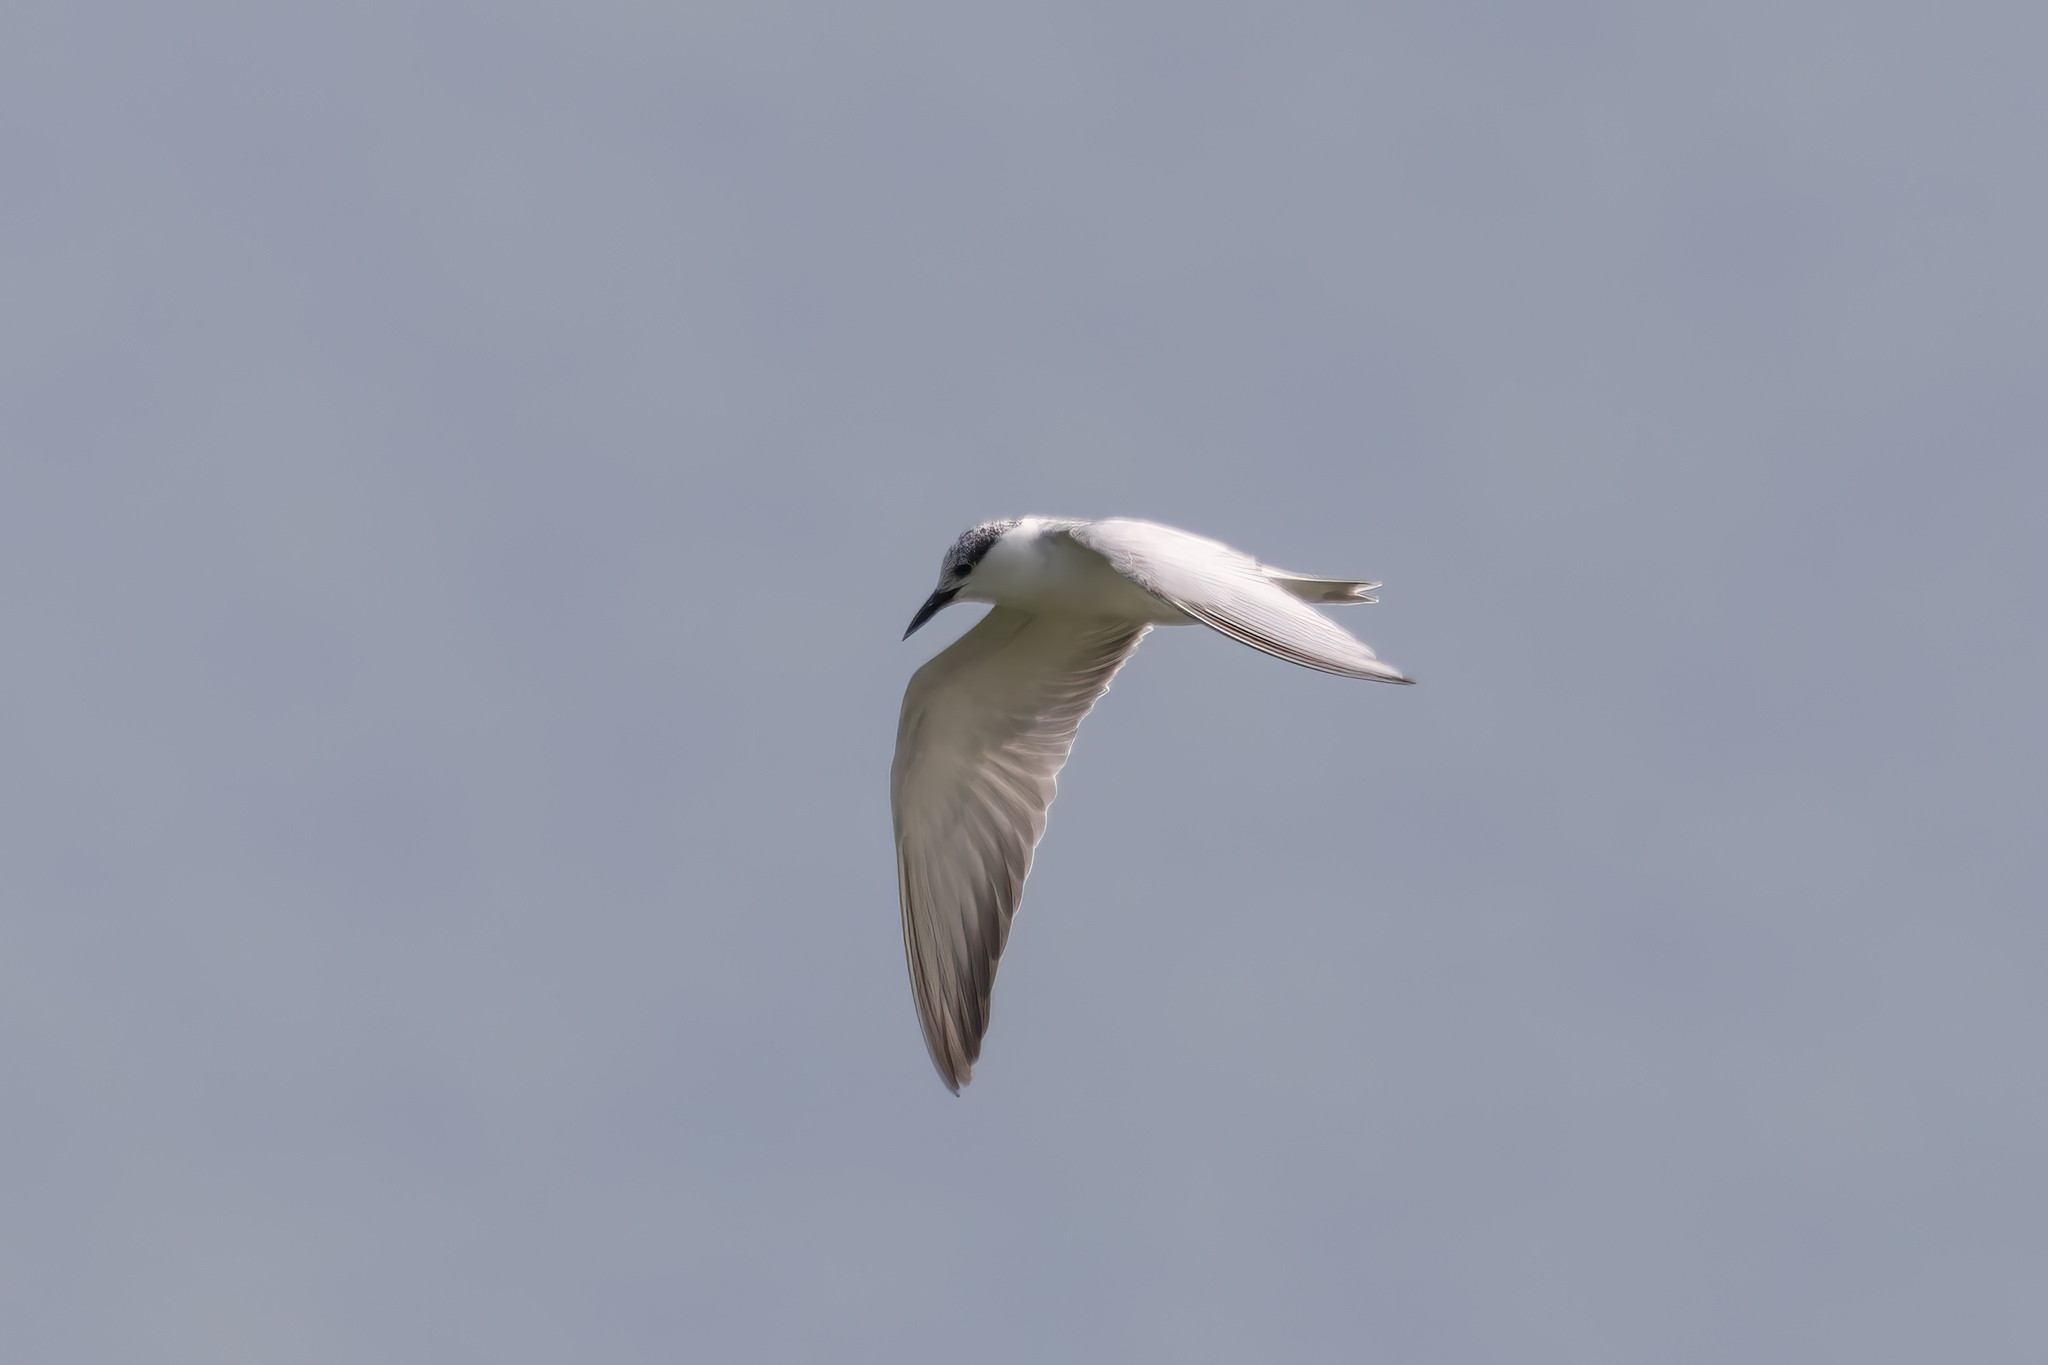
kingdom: Animalia
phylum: Chordata
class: Aves
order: Charadriiformes
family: Laridae
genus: Chlidonias
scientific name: Chlidonias hybrida
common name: Whiskered tern
